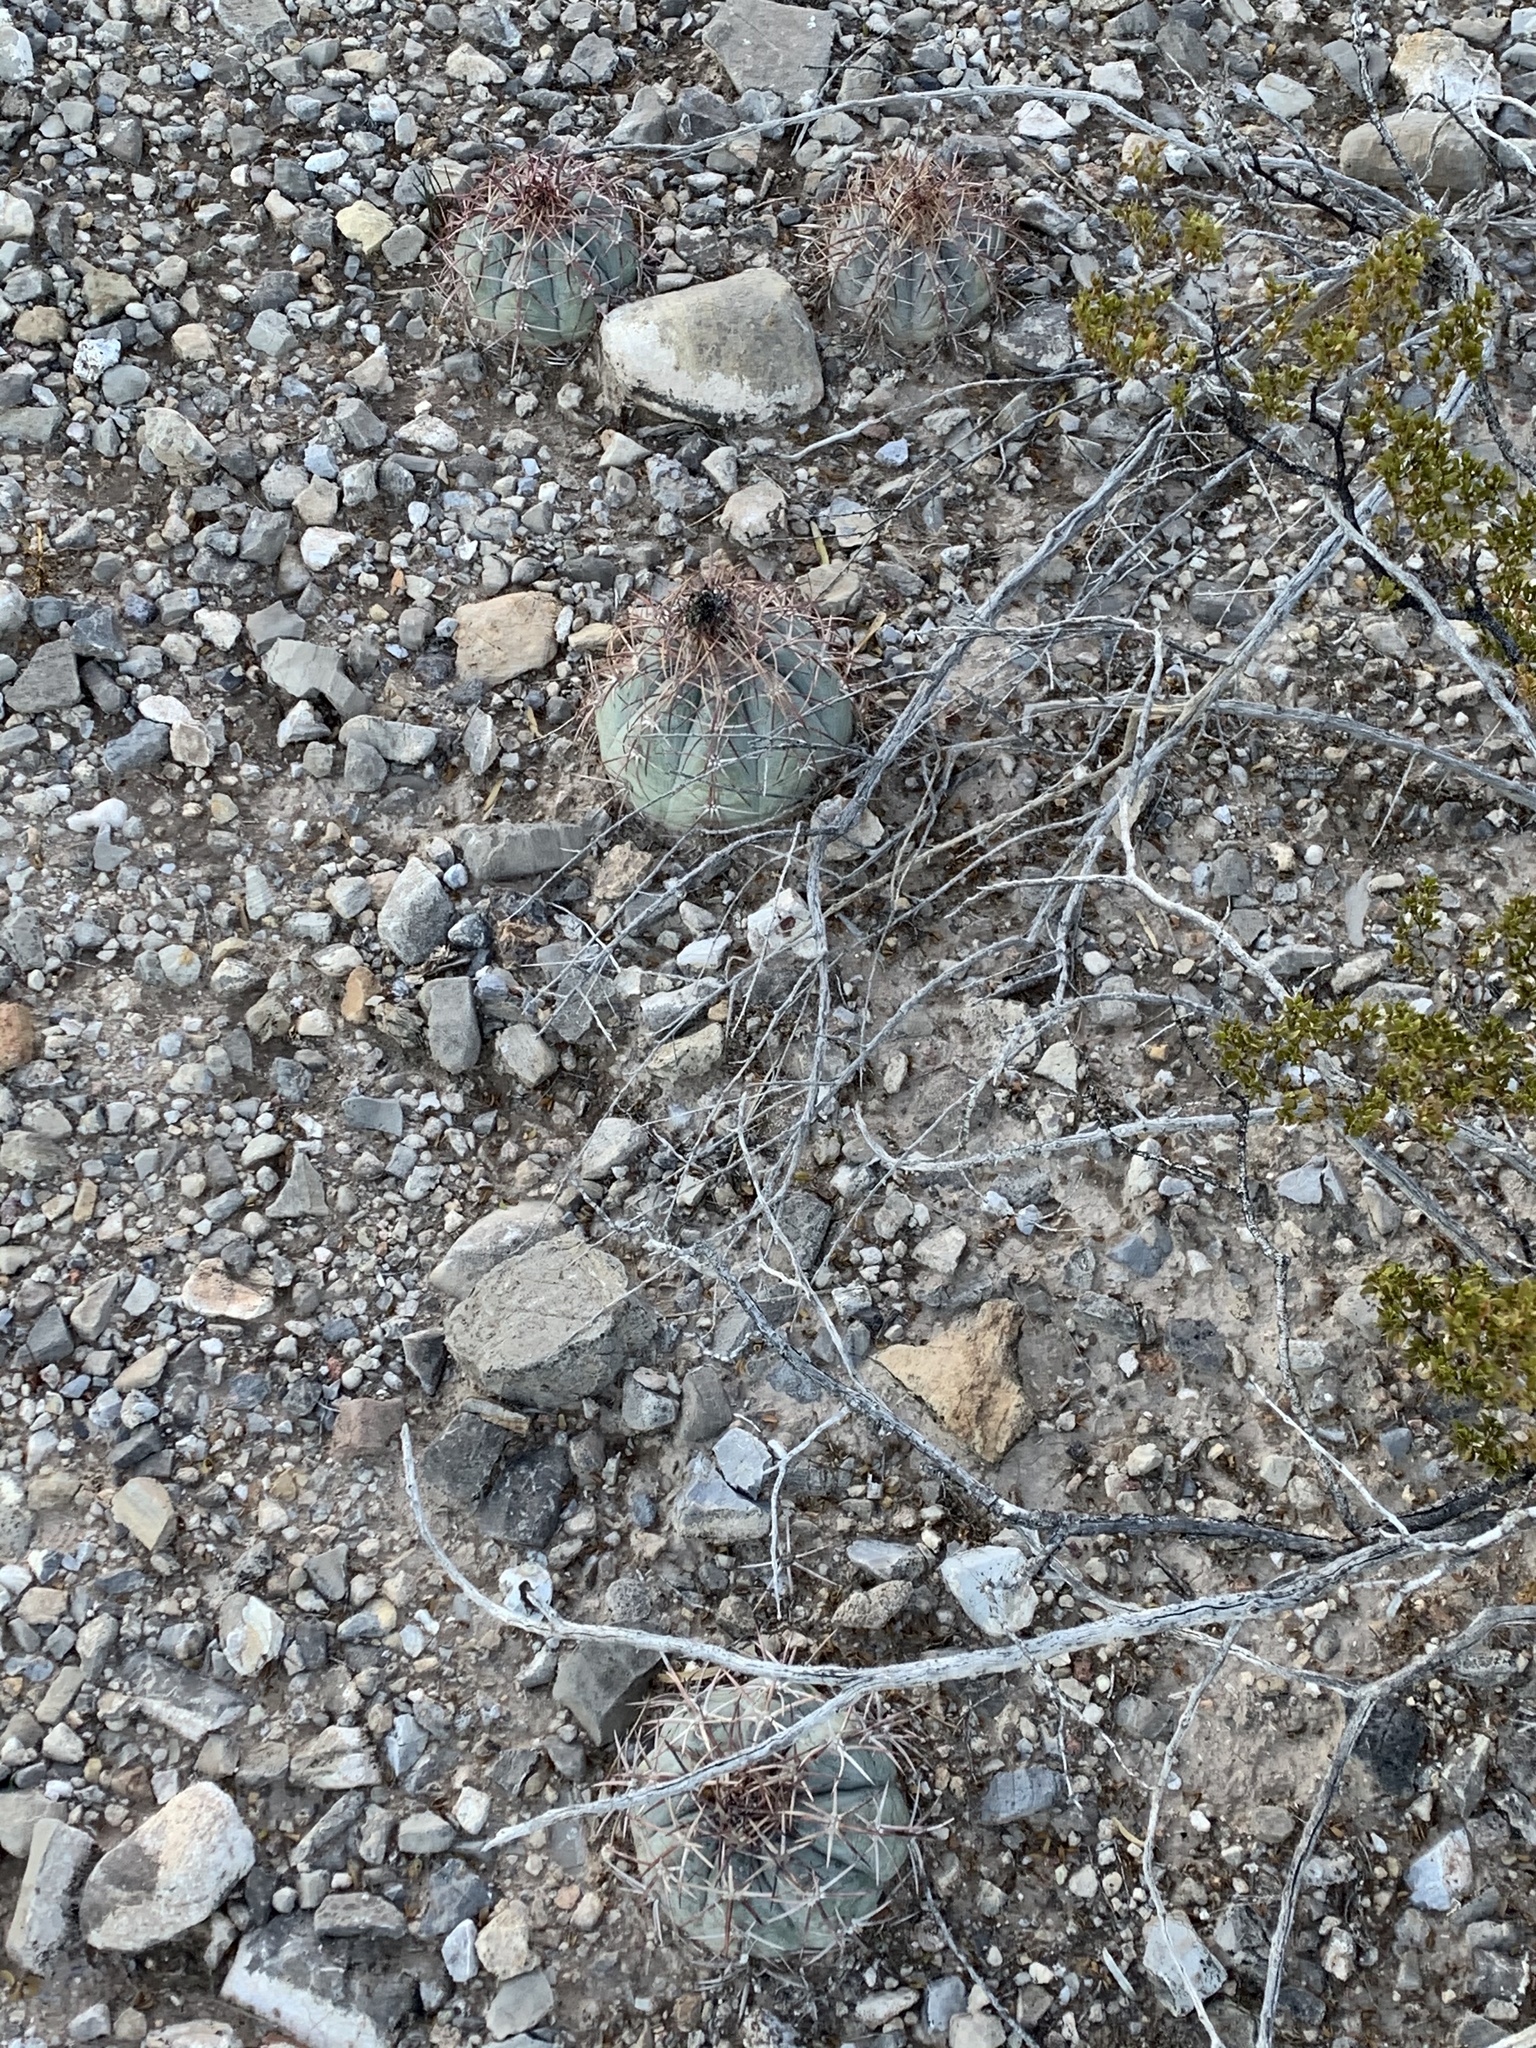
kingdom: Plantae
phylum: Tracheophyta
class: Magnoliopsida
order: Caryophyllales
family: Cactaceae
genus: Echinocactus
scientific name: Echinocactus horizonthalonius
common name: Devilshead
